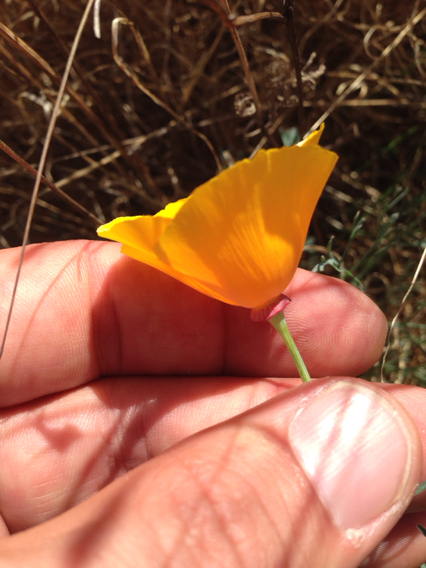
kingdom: Plantae
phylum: Tracheophyta
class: Magnoliopsida
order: Ranunculales
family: Papaveraceae
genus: Eschscholzia
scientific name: Eschscholzia californica
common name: California poppy
